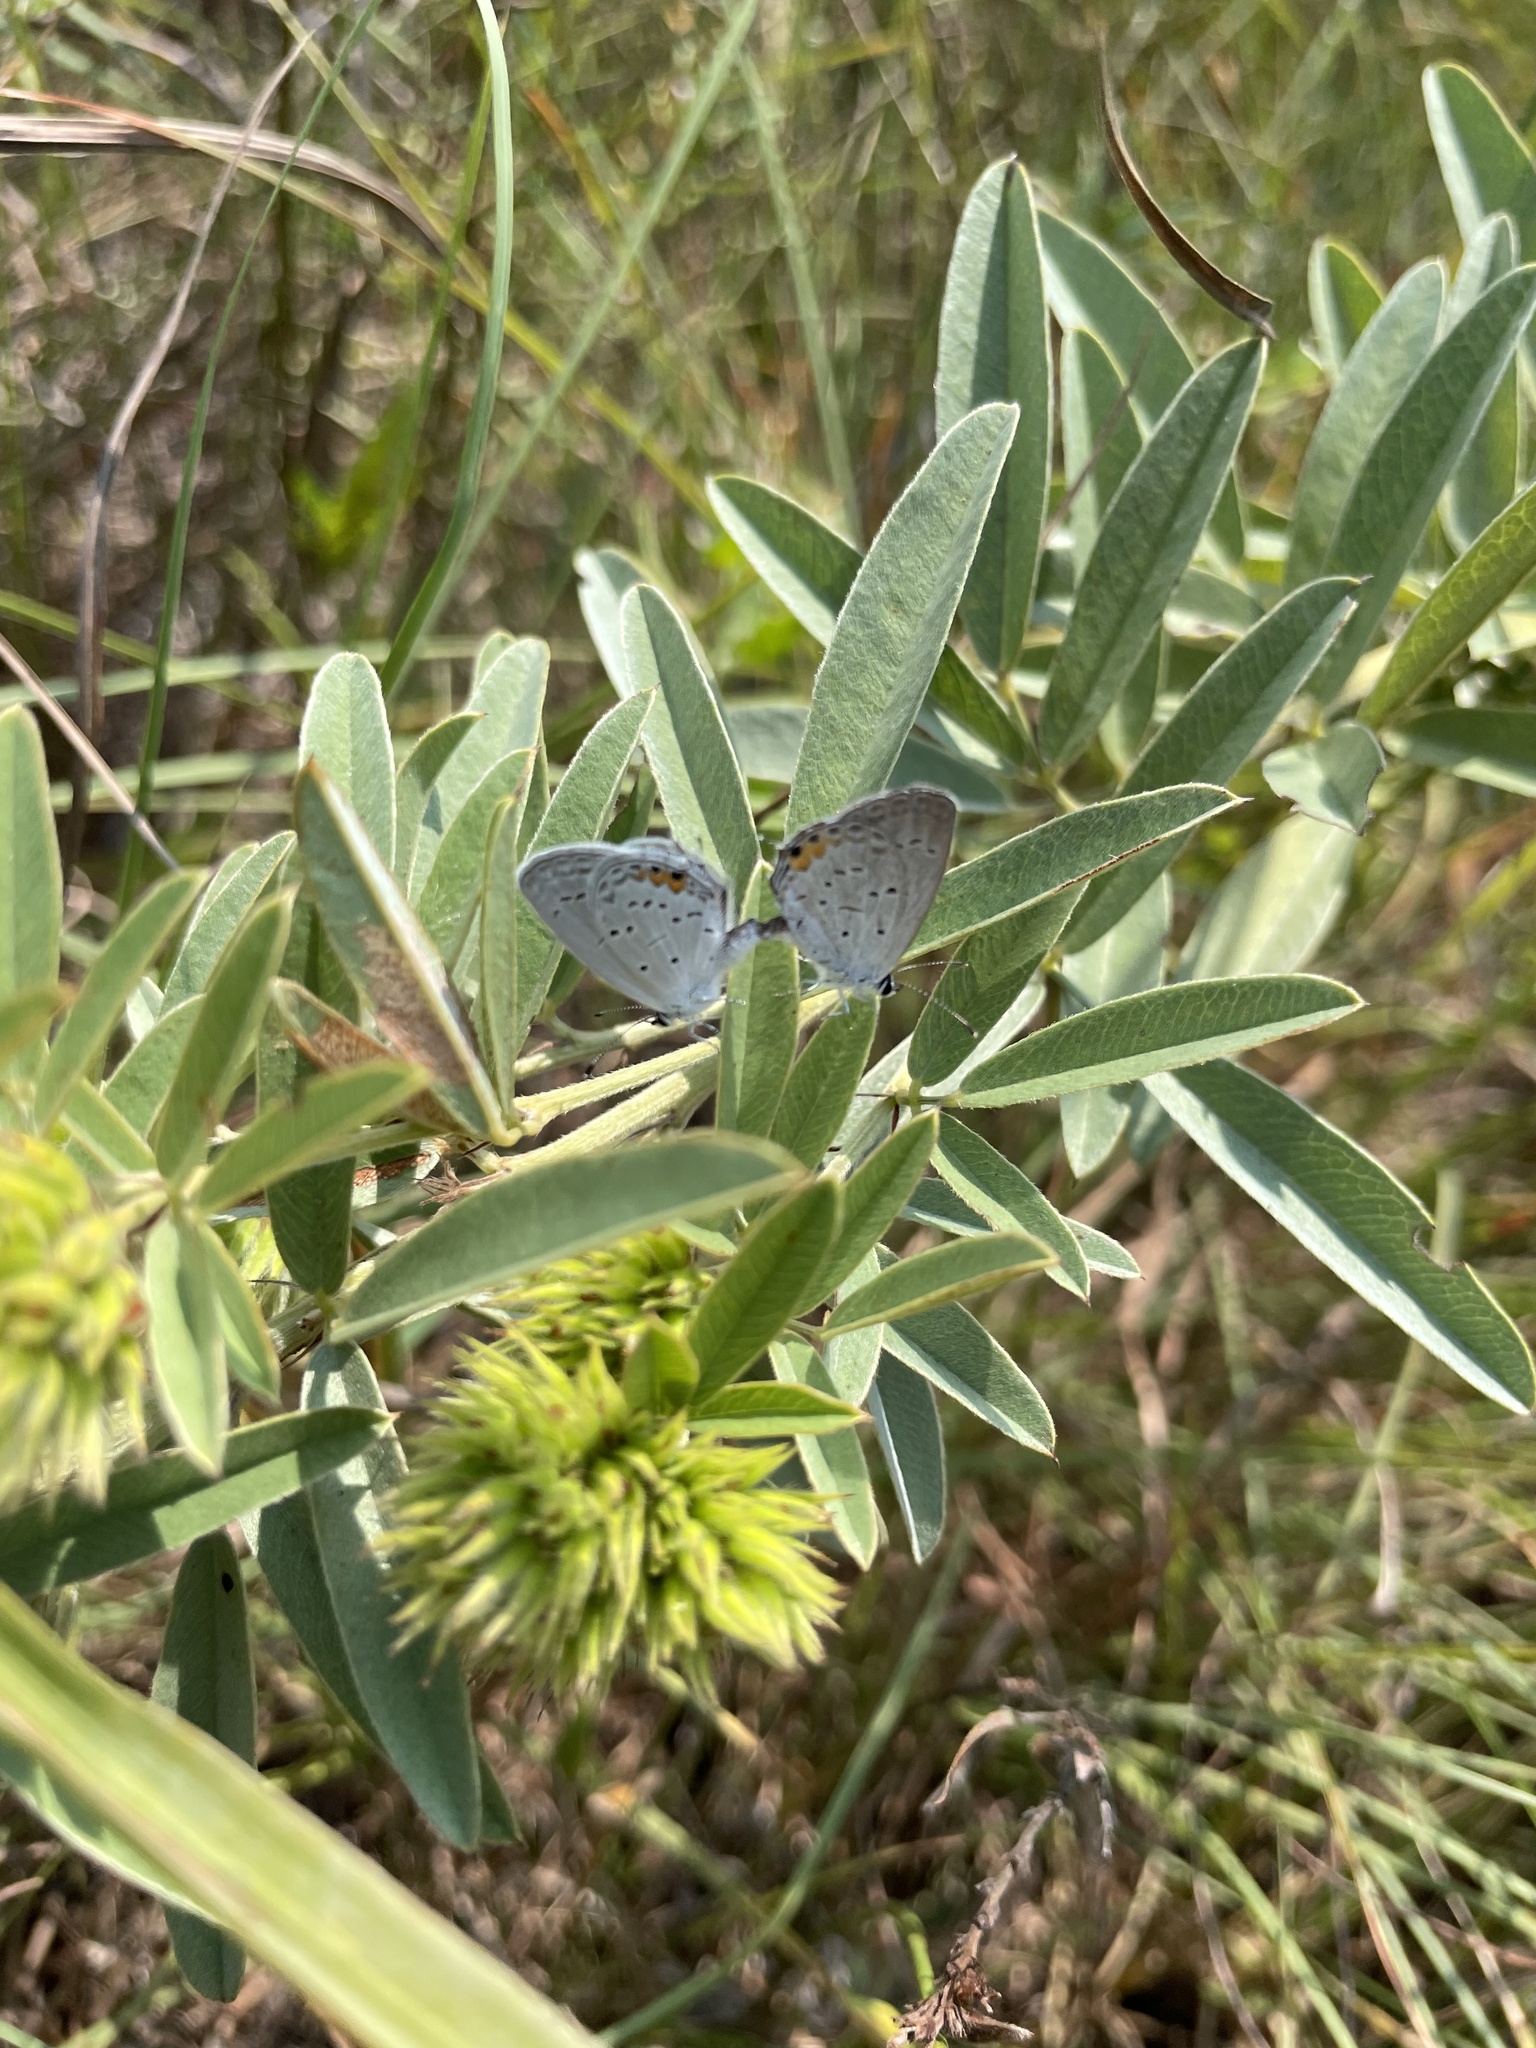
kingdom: Animalia
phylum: Arthropoda
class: Insecta
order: Lepidoptera
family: Lycaenidae
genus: Elkalyce
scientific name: Elkalyce comyntas
